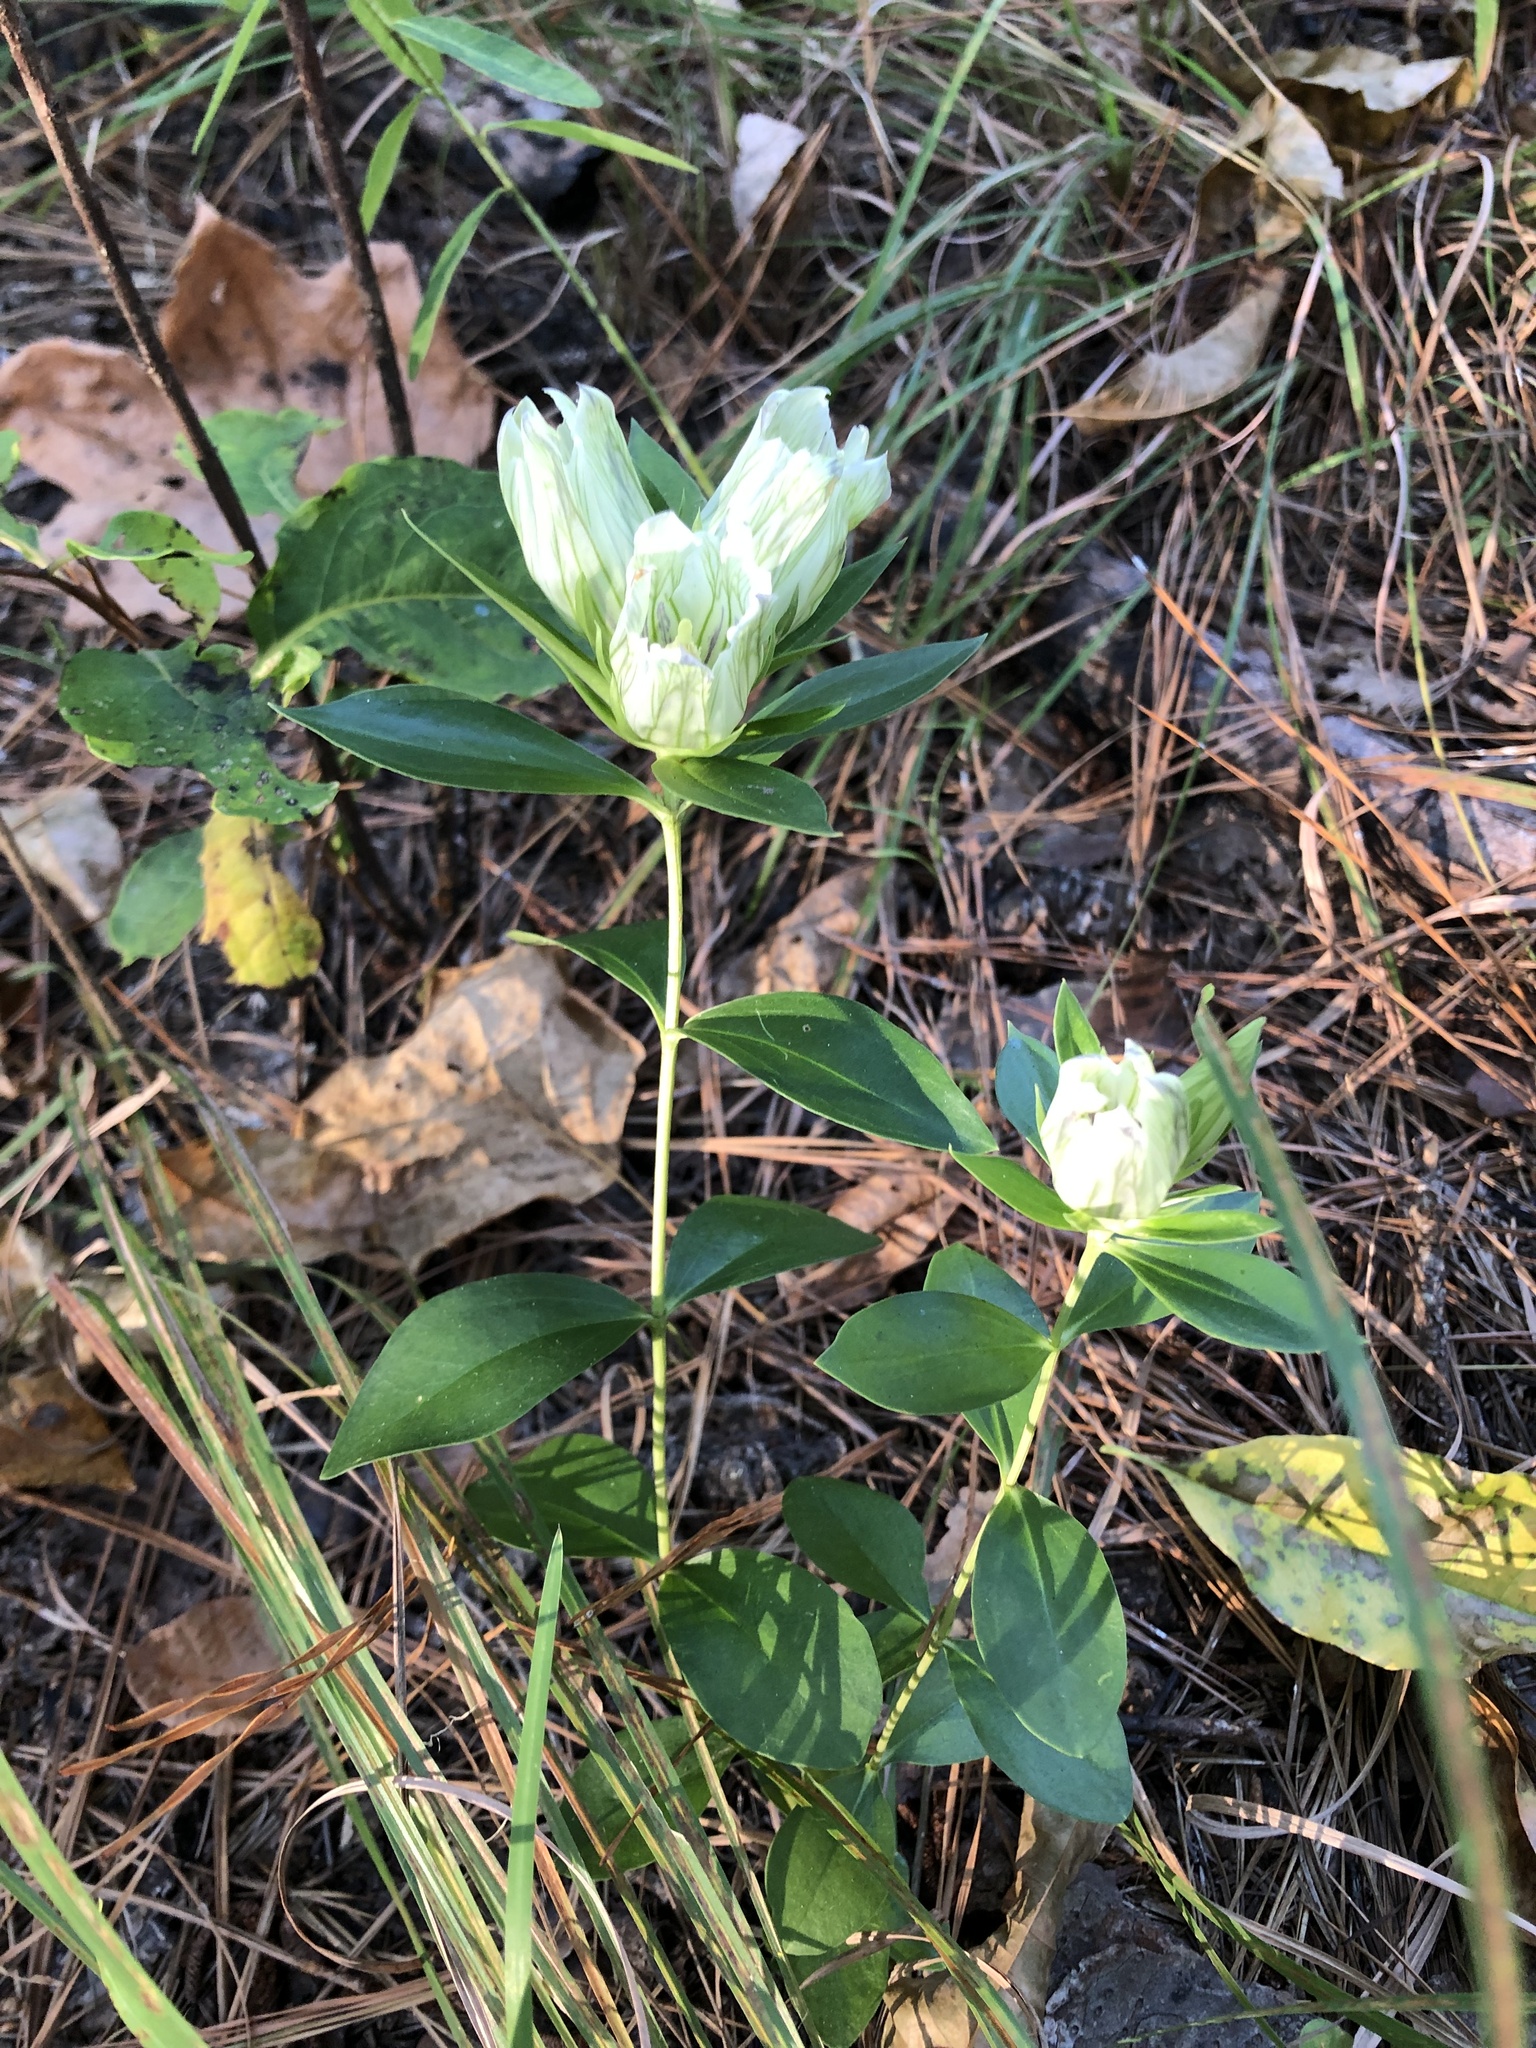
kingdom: Plantae
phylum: Tracheophyta
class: Magnoliopsida
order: Gentianales
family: Gentianaceae
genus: Gentiana
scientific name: Gentiana villosa
